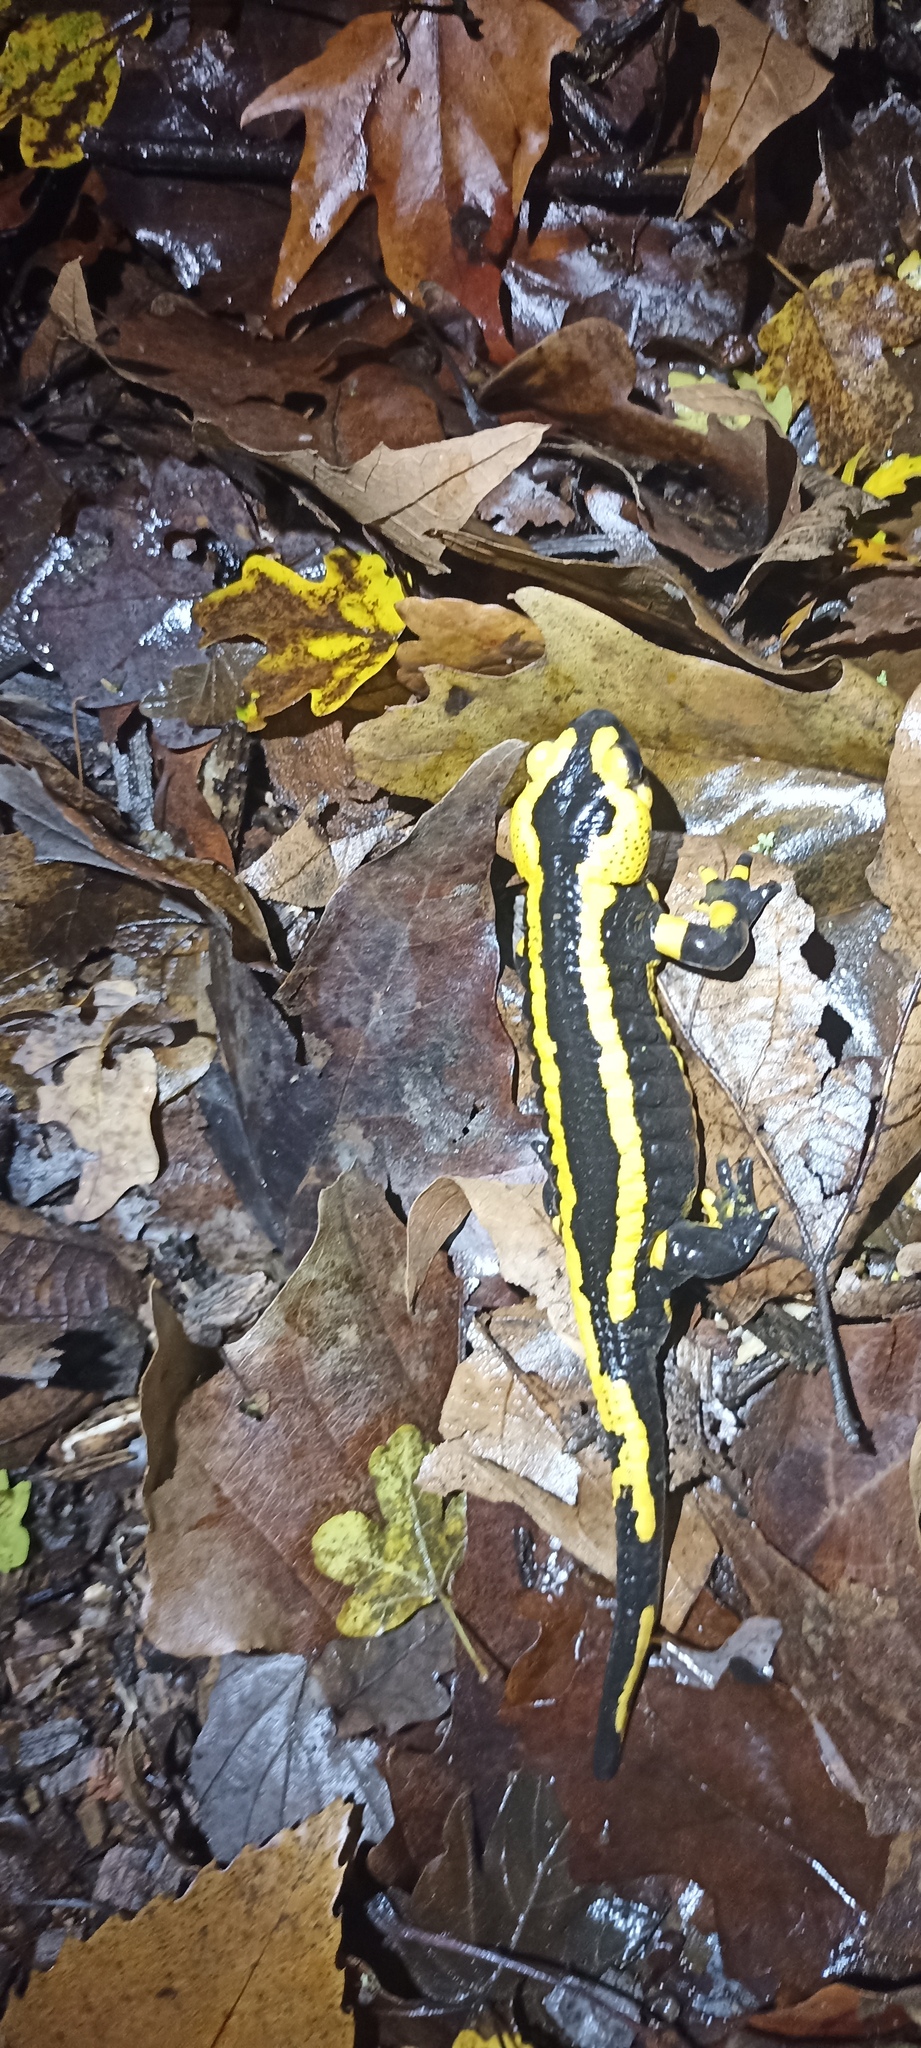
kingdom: Animalia
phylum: Chordata
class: Amphibia
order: Caudata
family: Salamandridae
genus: Salamandra
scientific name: Salamandra salamandra
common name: Fire salamander
